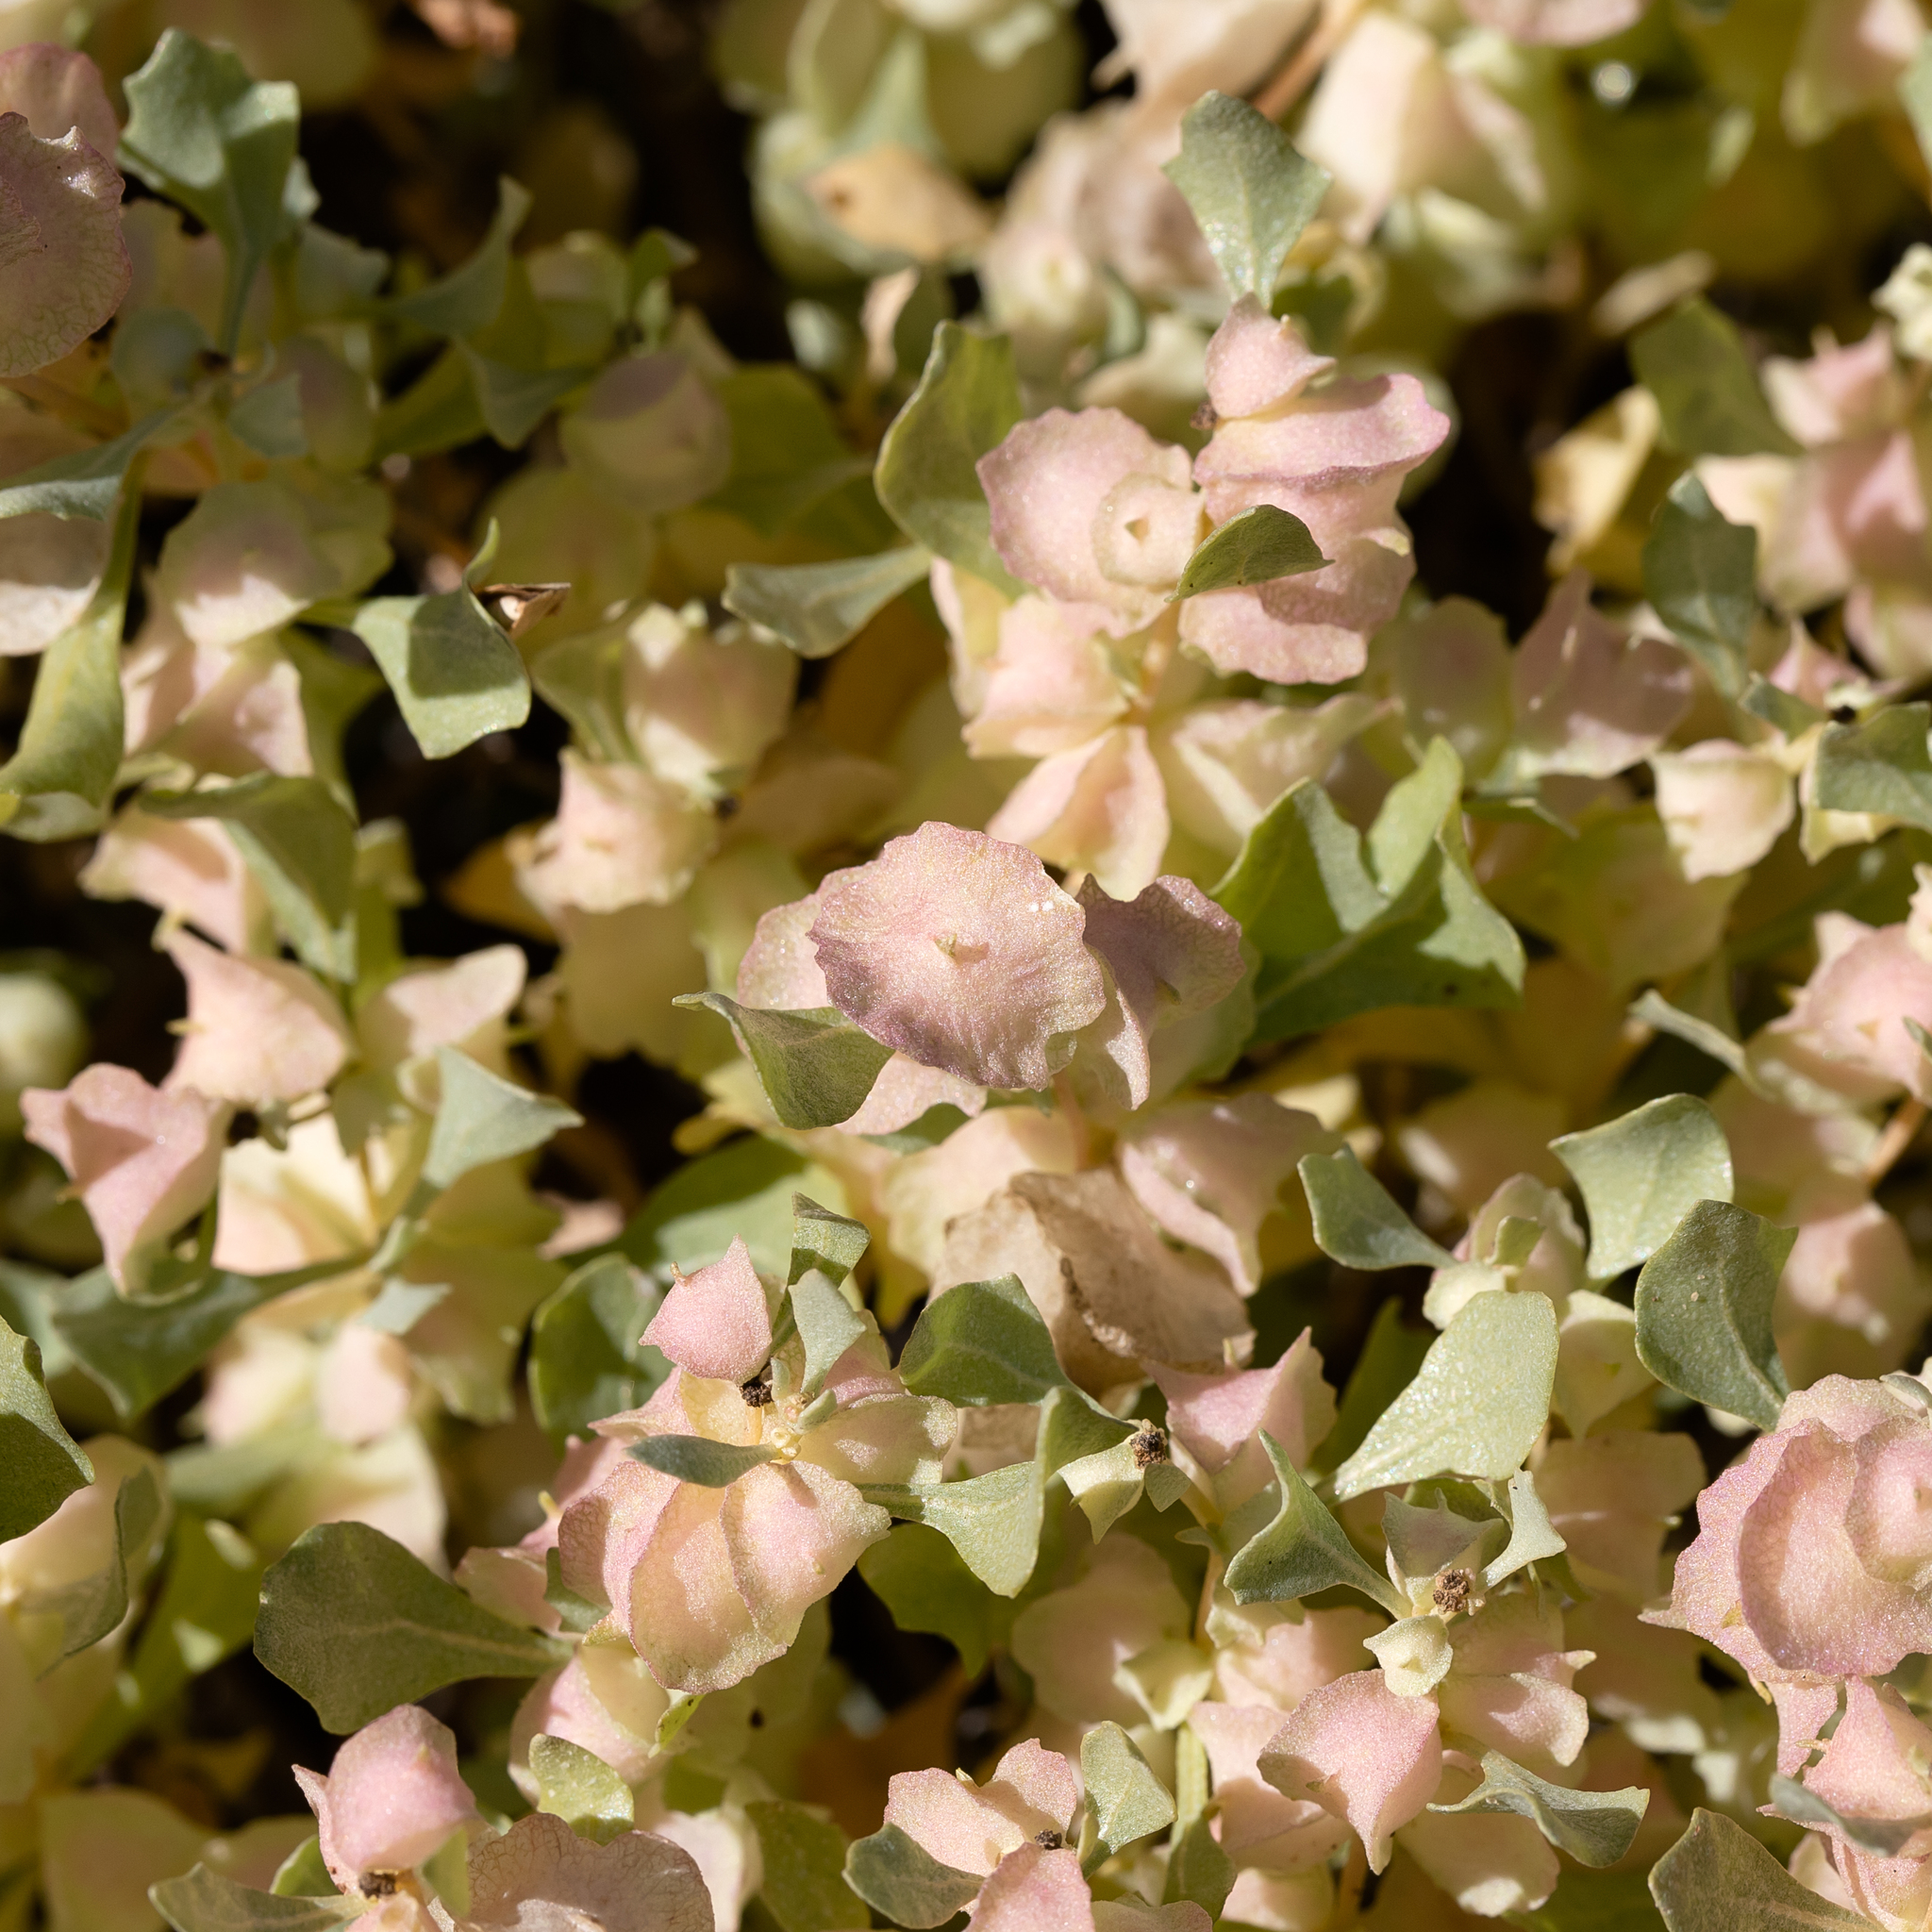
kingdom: Plantae
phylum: Tracheophyta
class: Magnoliopsida
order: Caryophyllales
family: Amaranthaceae
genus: Atriplex
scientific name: Atriplex lindleyi
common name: Lindley's saltbush
